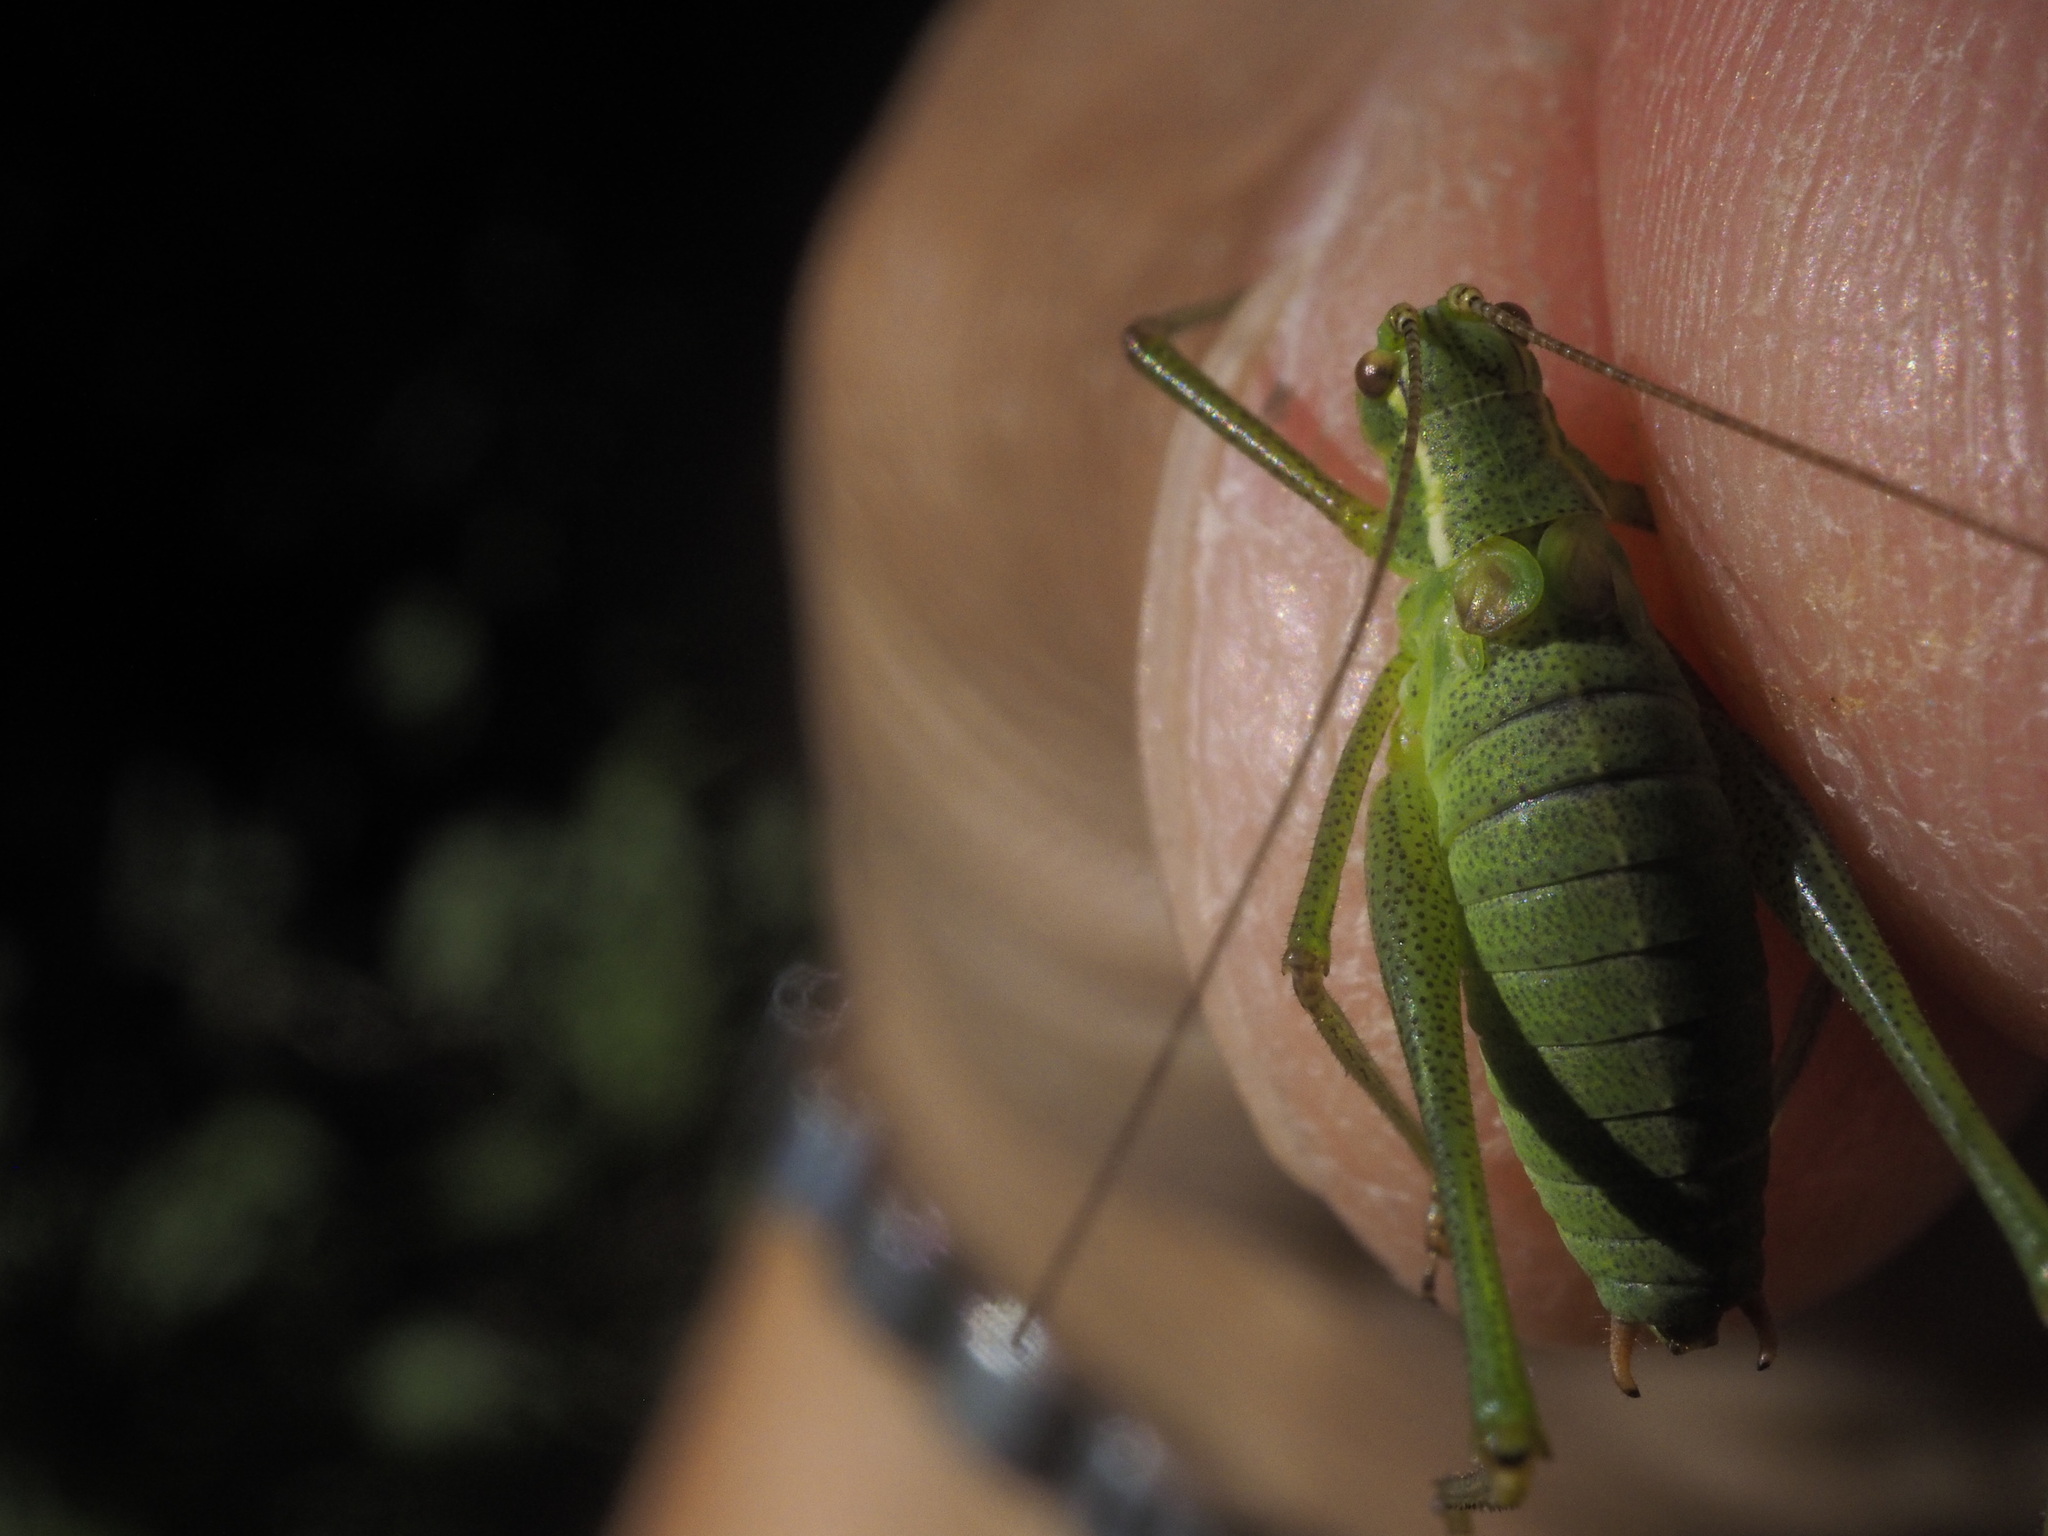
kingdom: Animalia
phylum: Arthropoda
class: Insecta
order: Orthoptera
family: Tettigoniidae
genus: Leptophyes
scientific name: Leptophyes punctatissima
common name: Speckled bush-cricket
